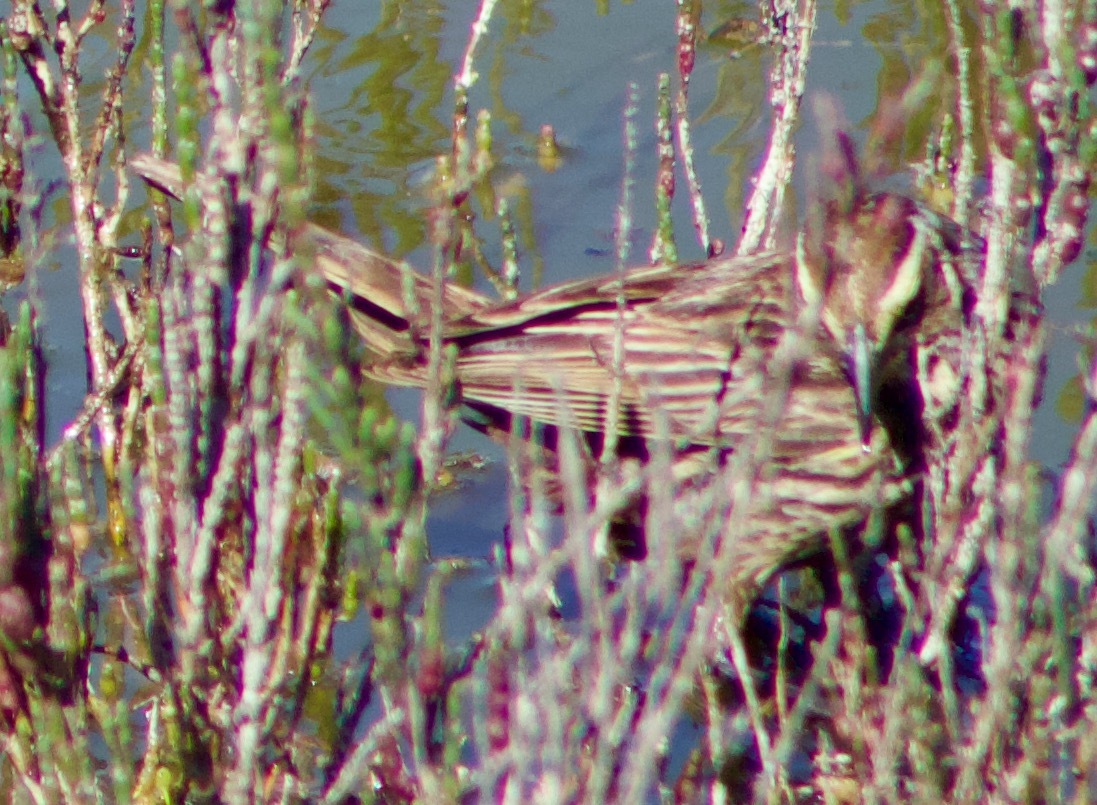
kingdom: Animalia
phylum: Chordata
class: Aves
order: Passeriformes
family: Icteridae
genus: Agelasticus
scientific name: Agelasticus thilius
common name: Yellow-winged blackbird
